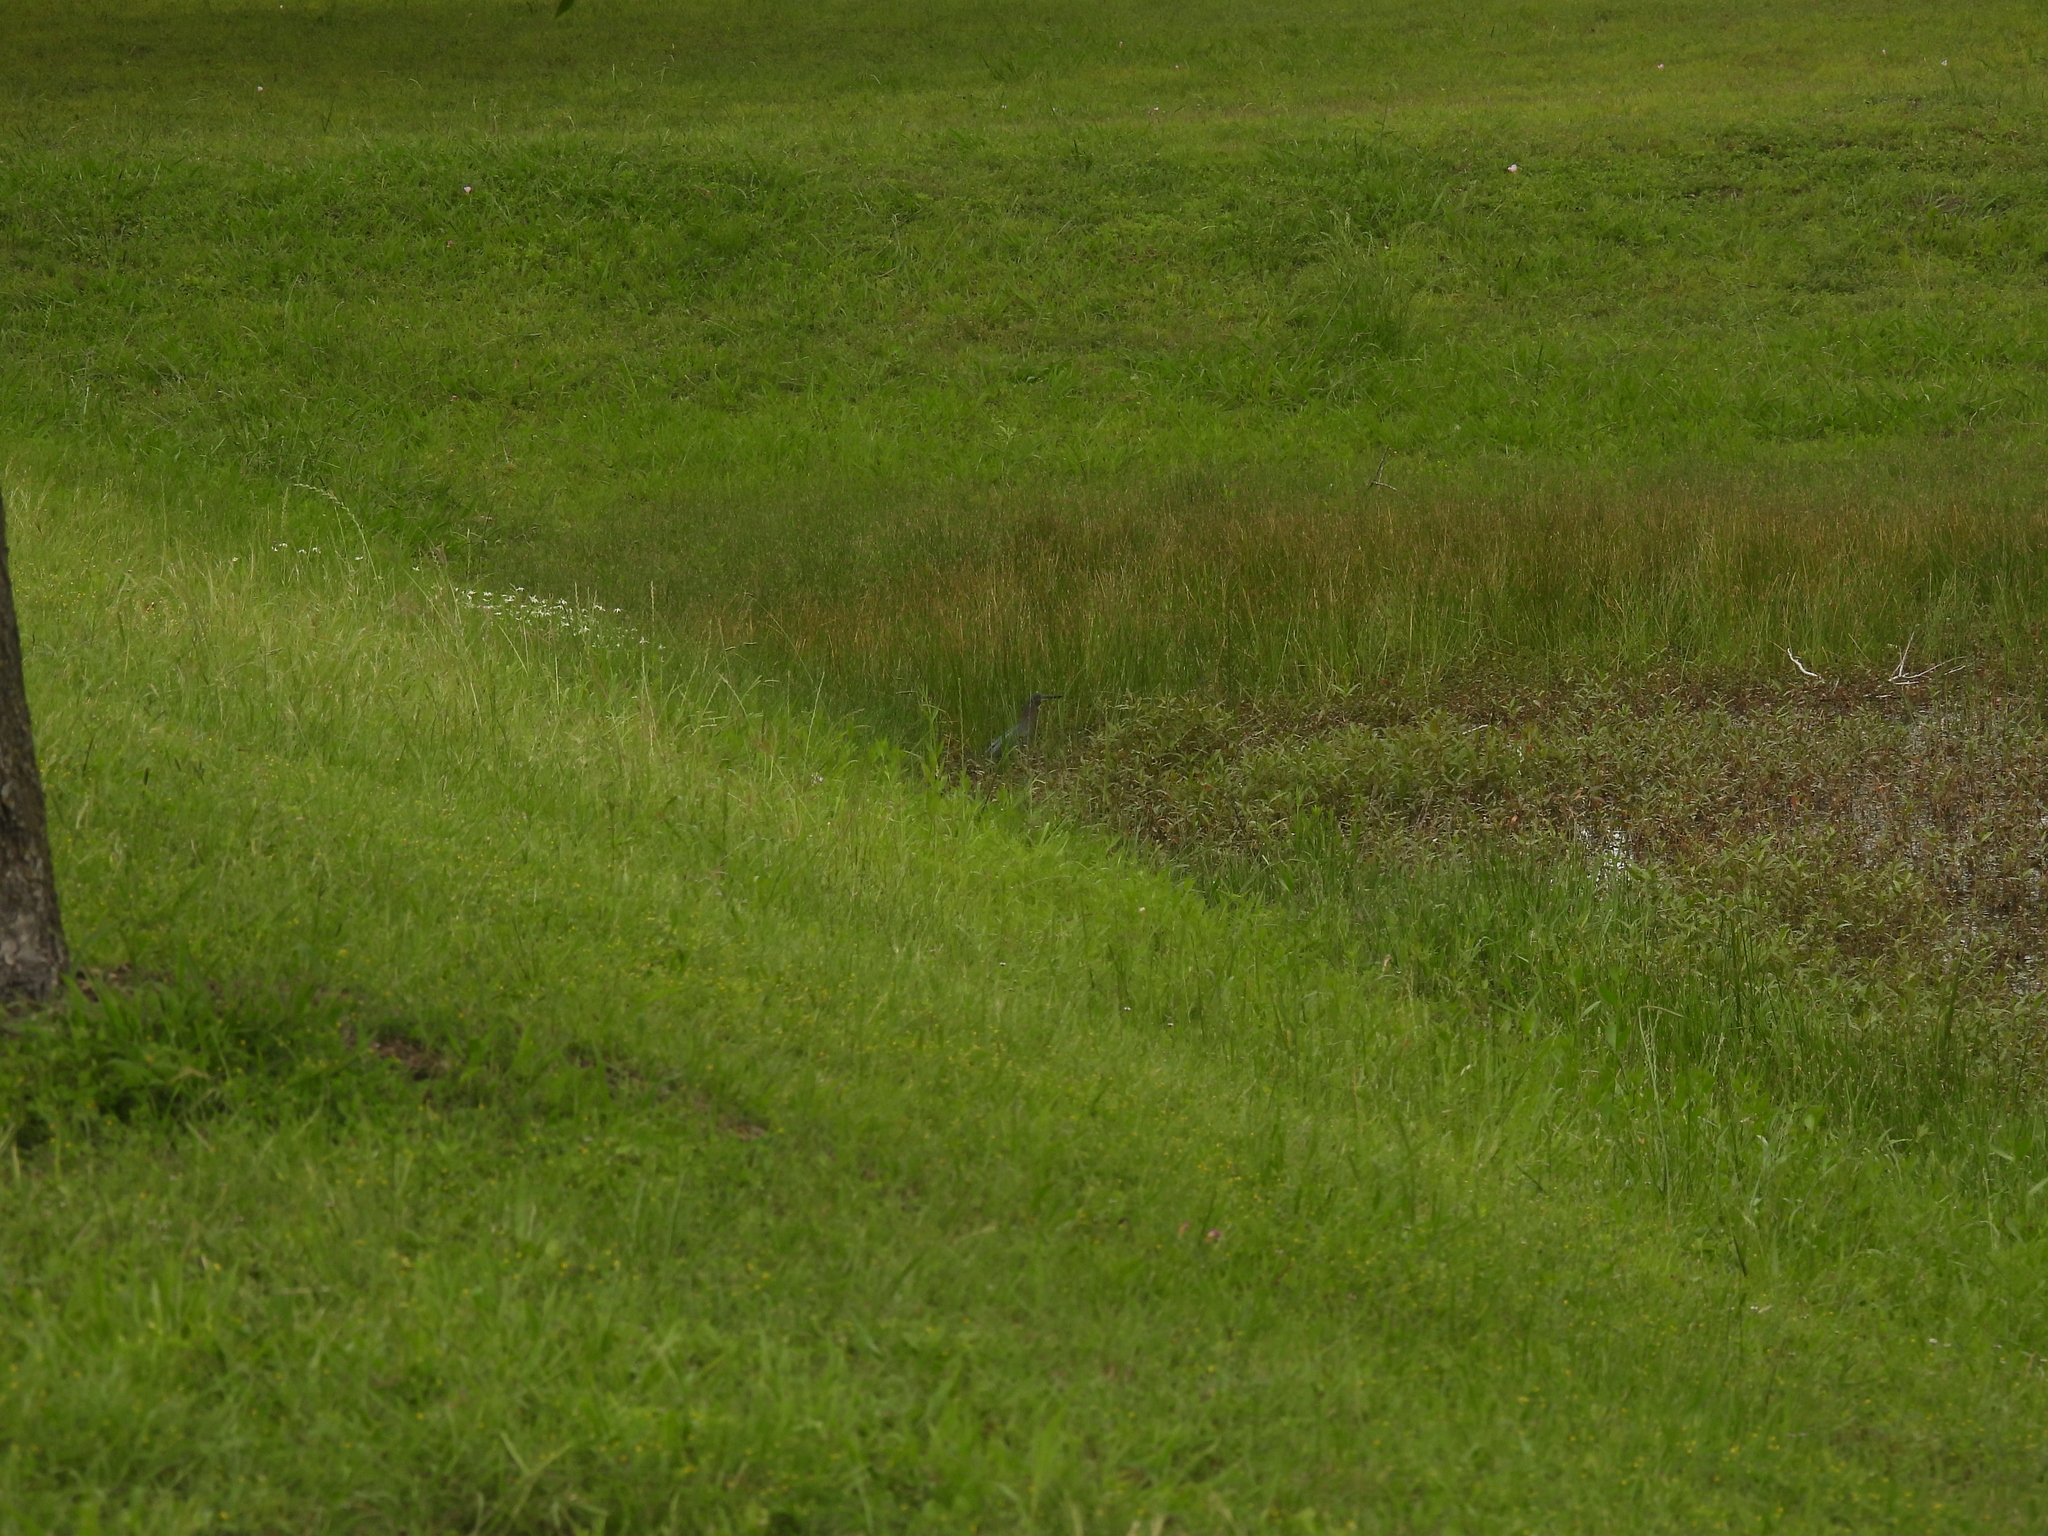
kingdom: Animalia
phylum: Chordata
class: Aves
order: Pelecaniformes
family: Ardeidae
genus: Butorides
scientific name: Butorides virescens
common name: Green heron
